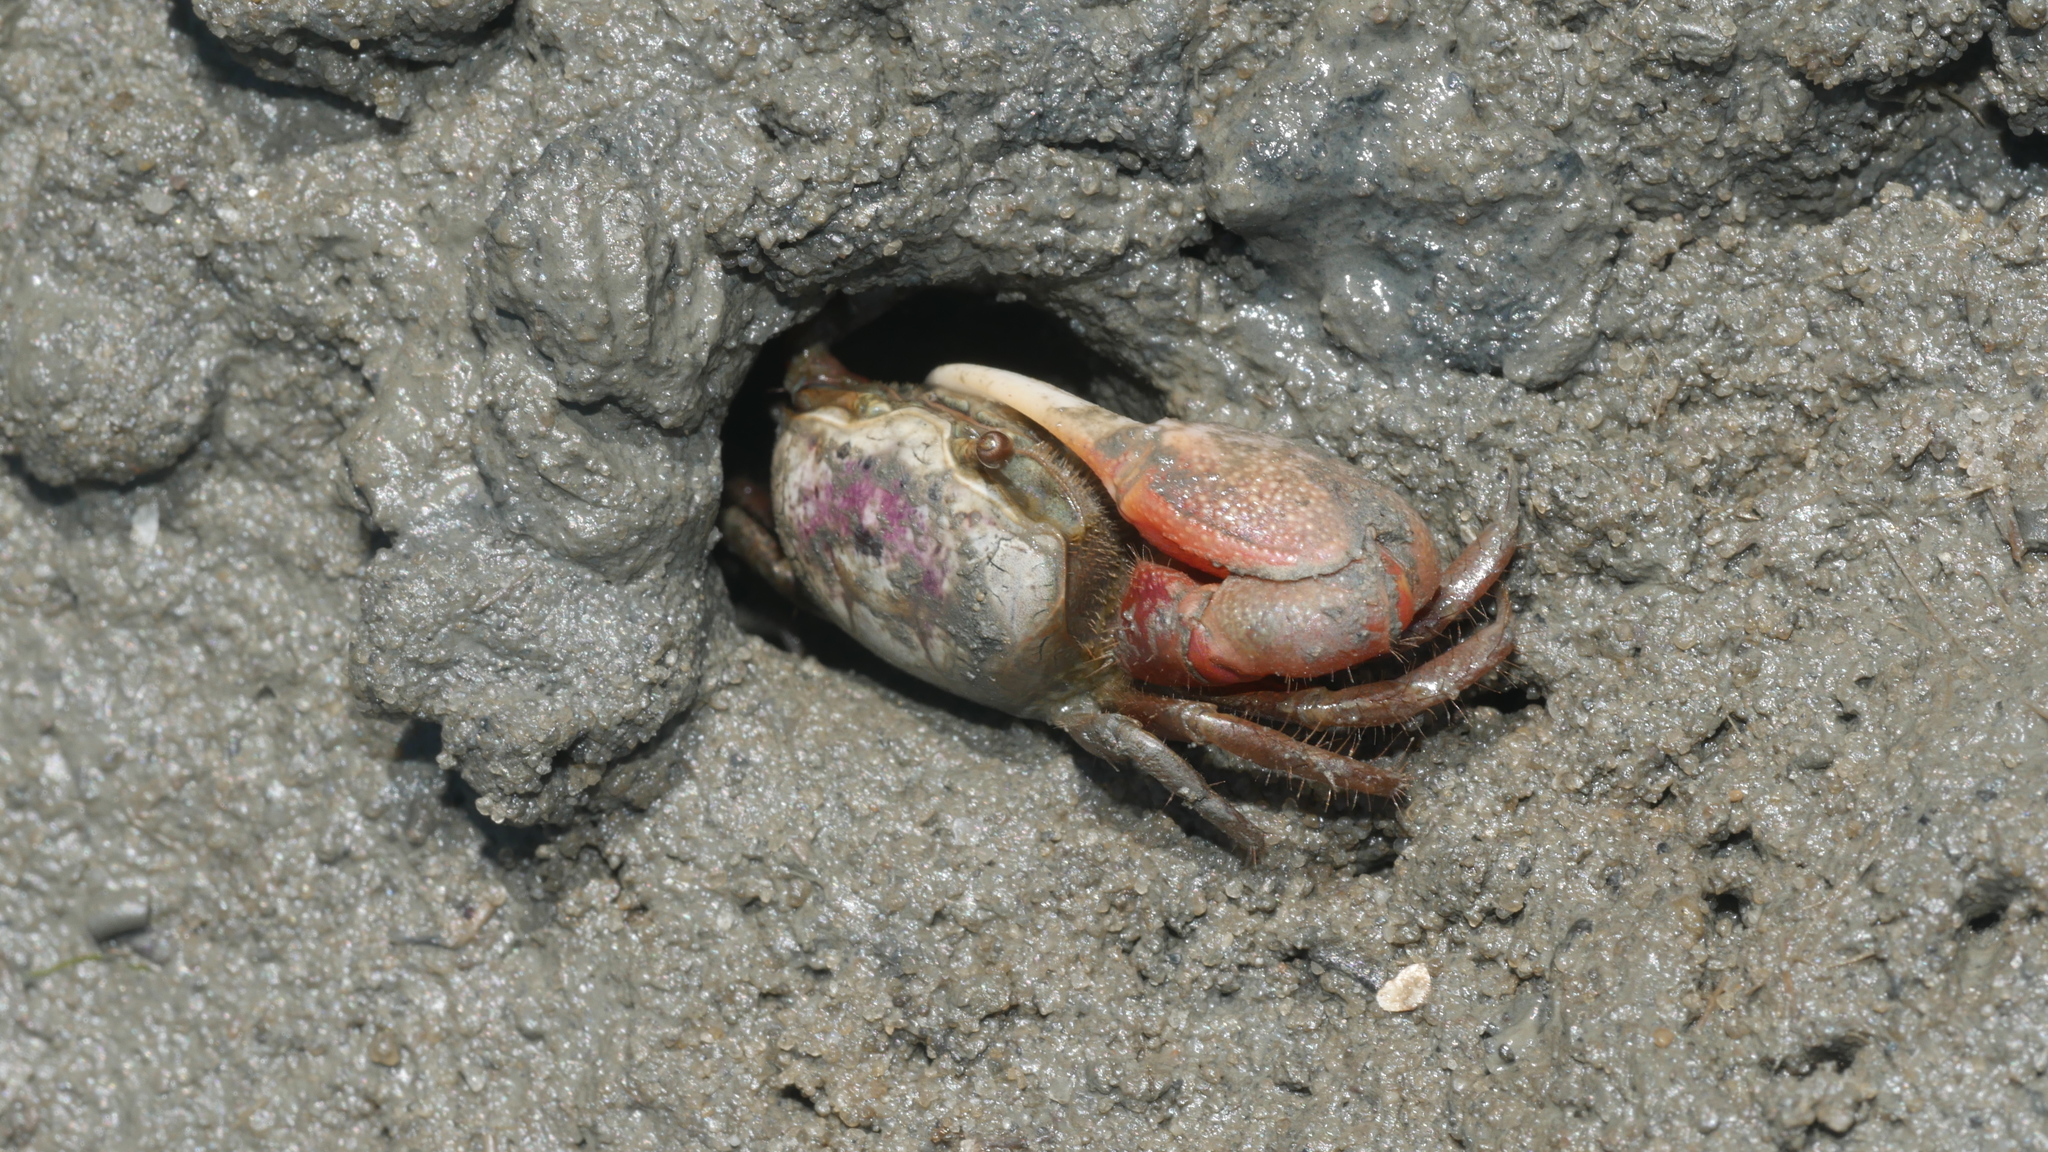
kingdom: Animalia
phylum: Arthropoda
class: Malacostraca
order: Decapoda
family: Ocypodidae
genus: Leptuca
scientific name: Leptuca pugilator
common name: Atlantic sand fiddler crab
